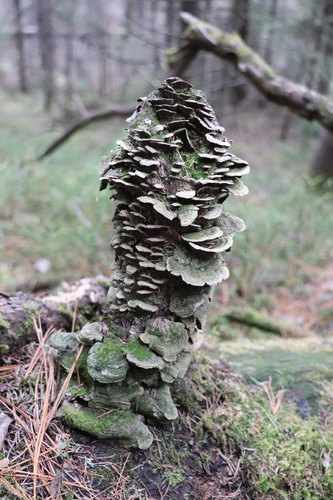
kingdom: Fungi
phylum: Basidiomycota
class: Agaricomycetes
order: Hymenochaetales
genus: Trichaptum
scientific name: Trichaptum fuscoviolaceum
